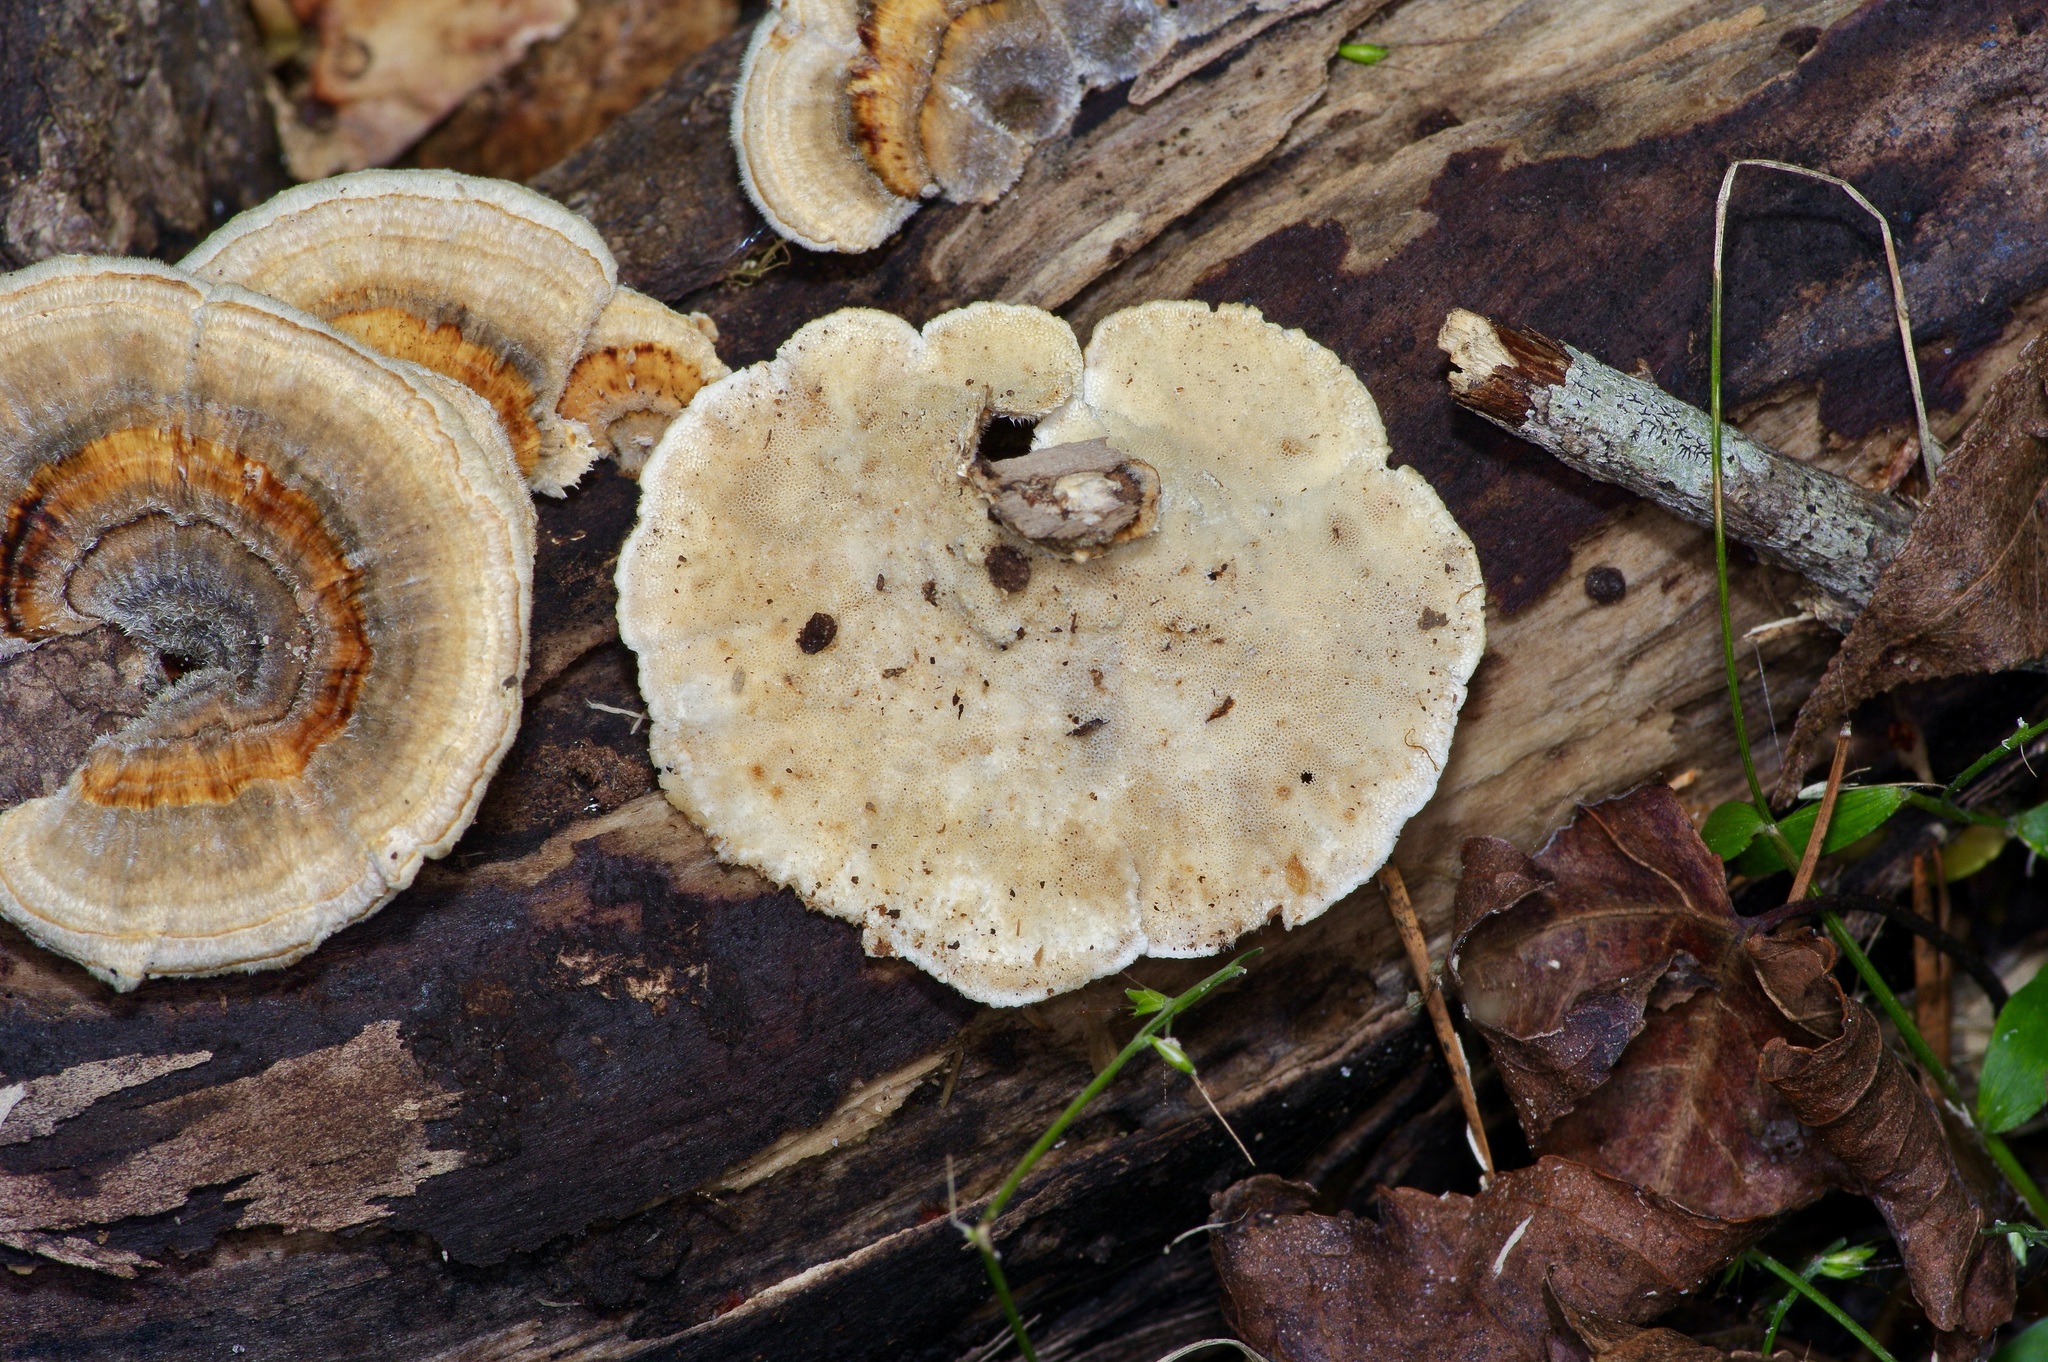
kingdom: Fungi
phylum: Basidiomycota
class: Agaricomycetes
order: Polyporales
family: Polyporaceae
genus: Trametes
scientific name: Trametes versicolor
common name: Turkeytail
